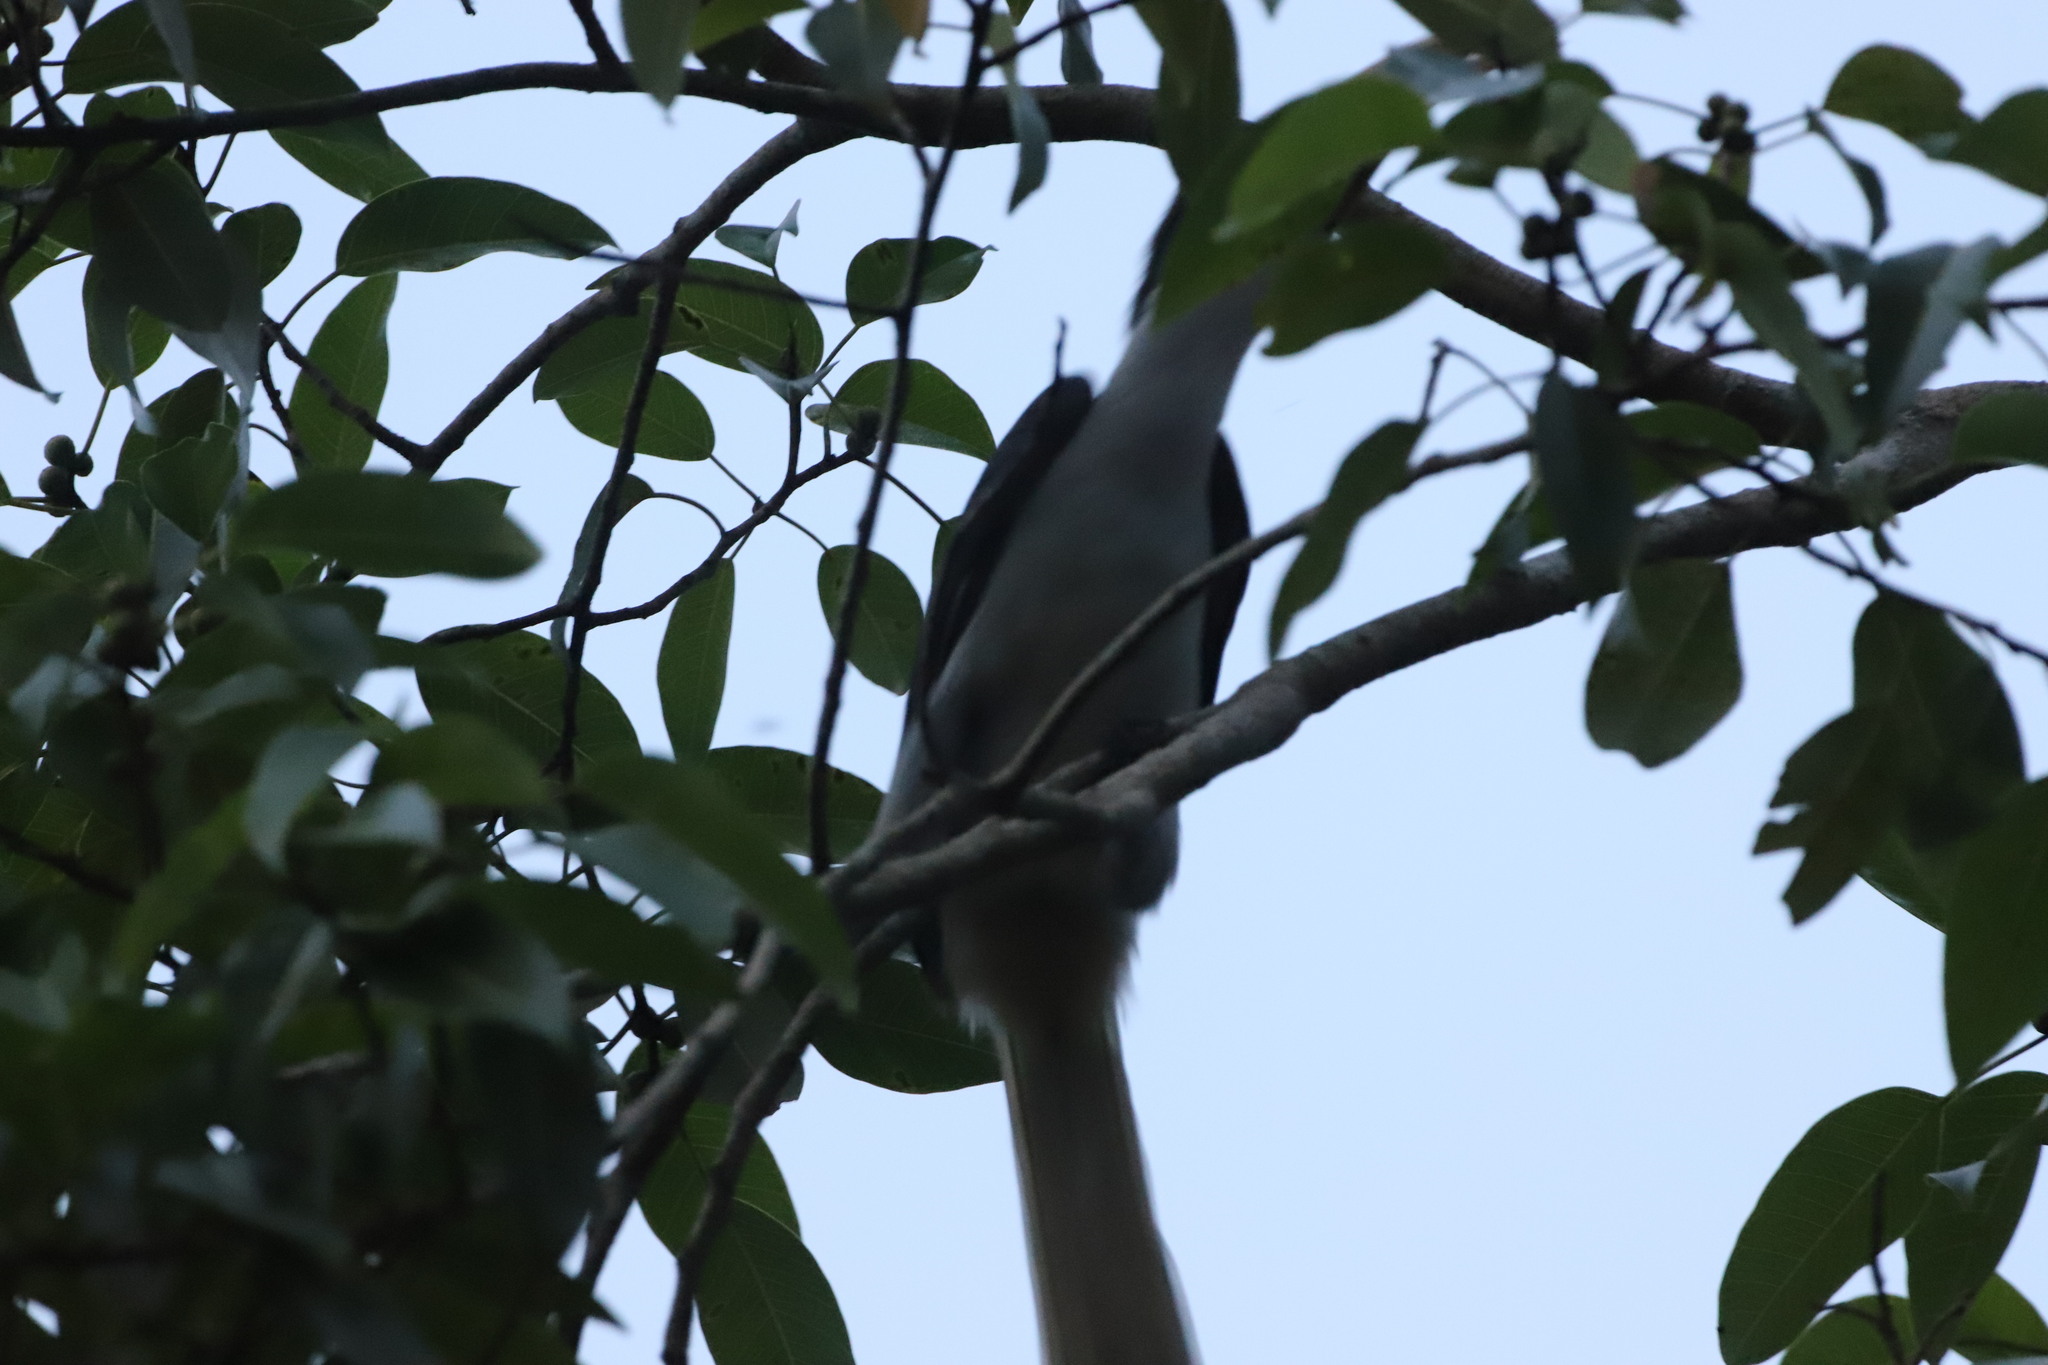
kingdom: Animalia
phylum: Chordata
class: Aves
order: Bucerotiformes
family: Bucerotidae
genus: Ocyceros
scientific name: Ocyceros gingalensis
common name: Sri lanka grey hornbill
